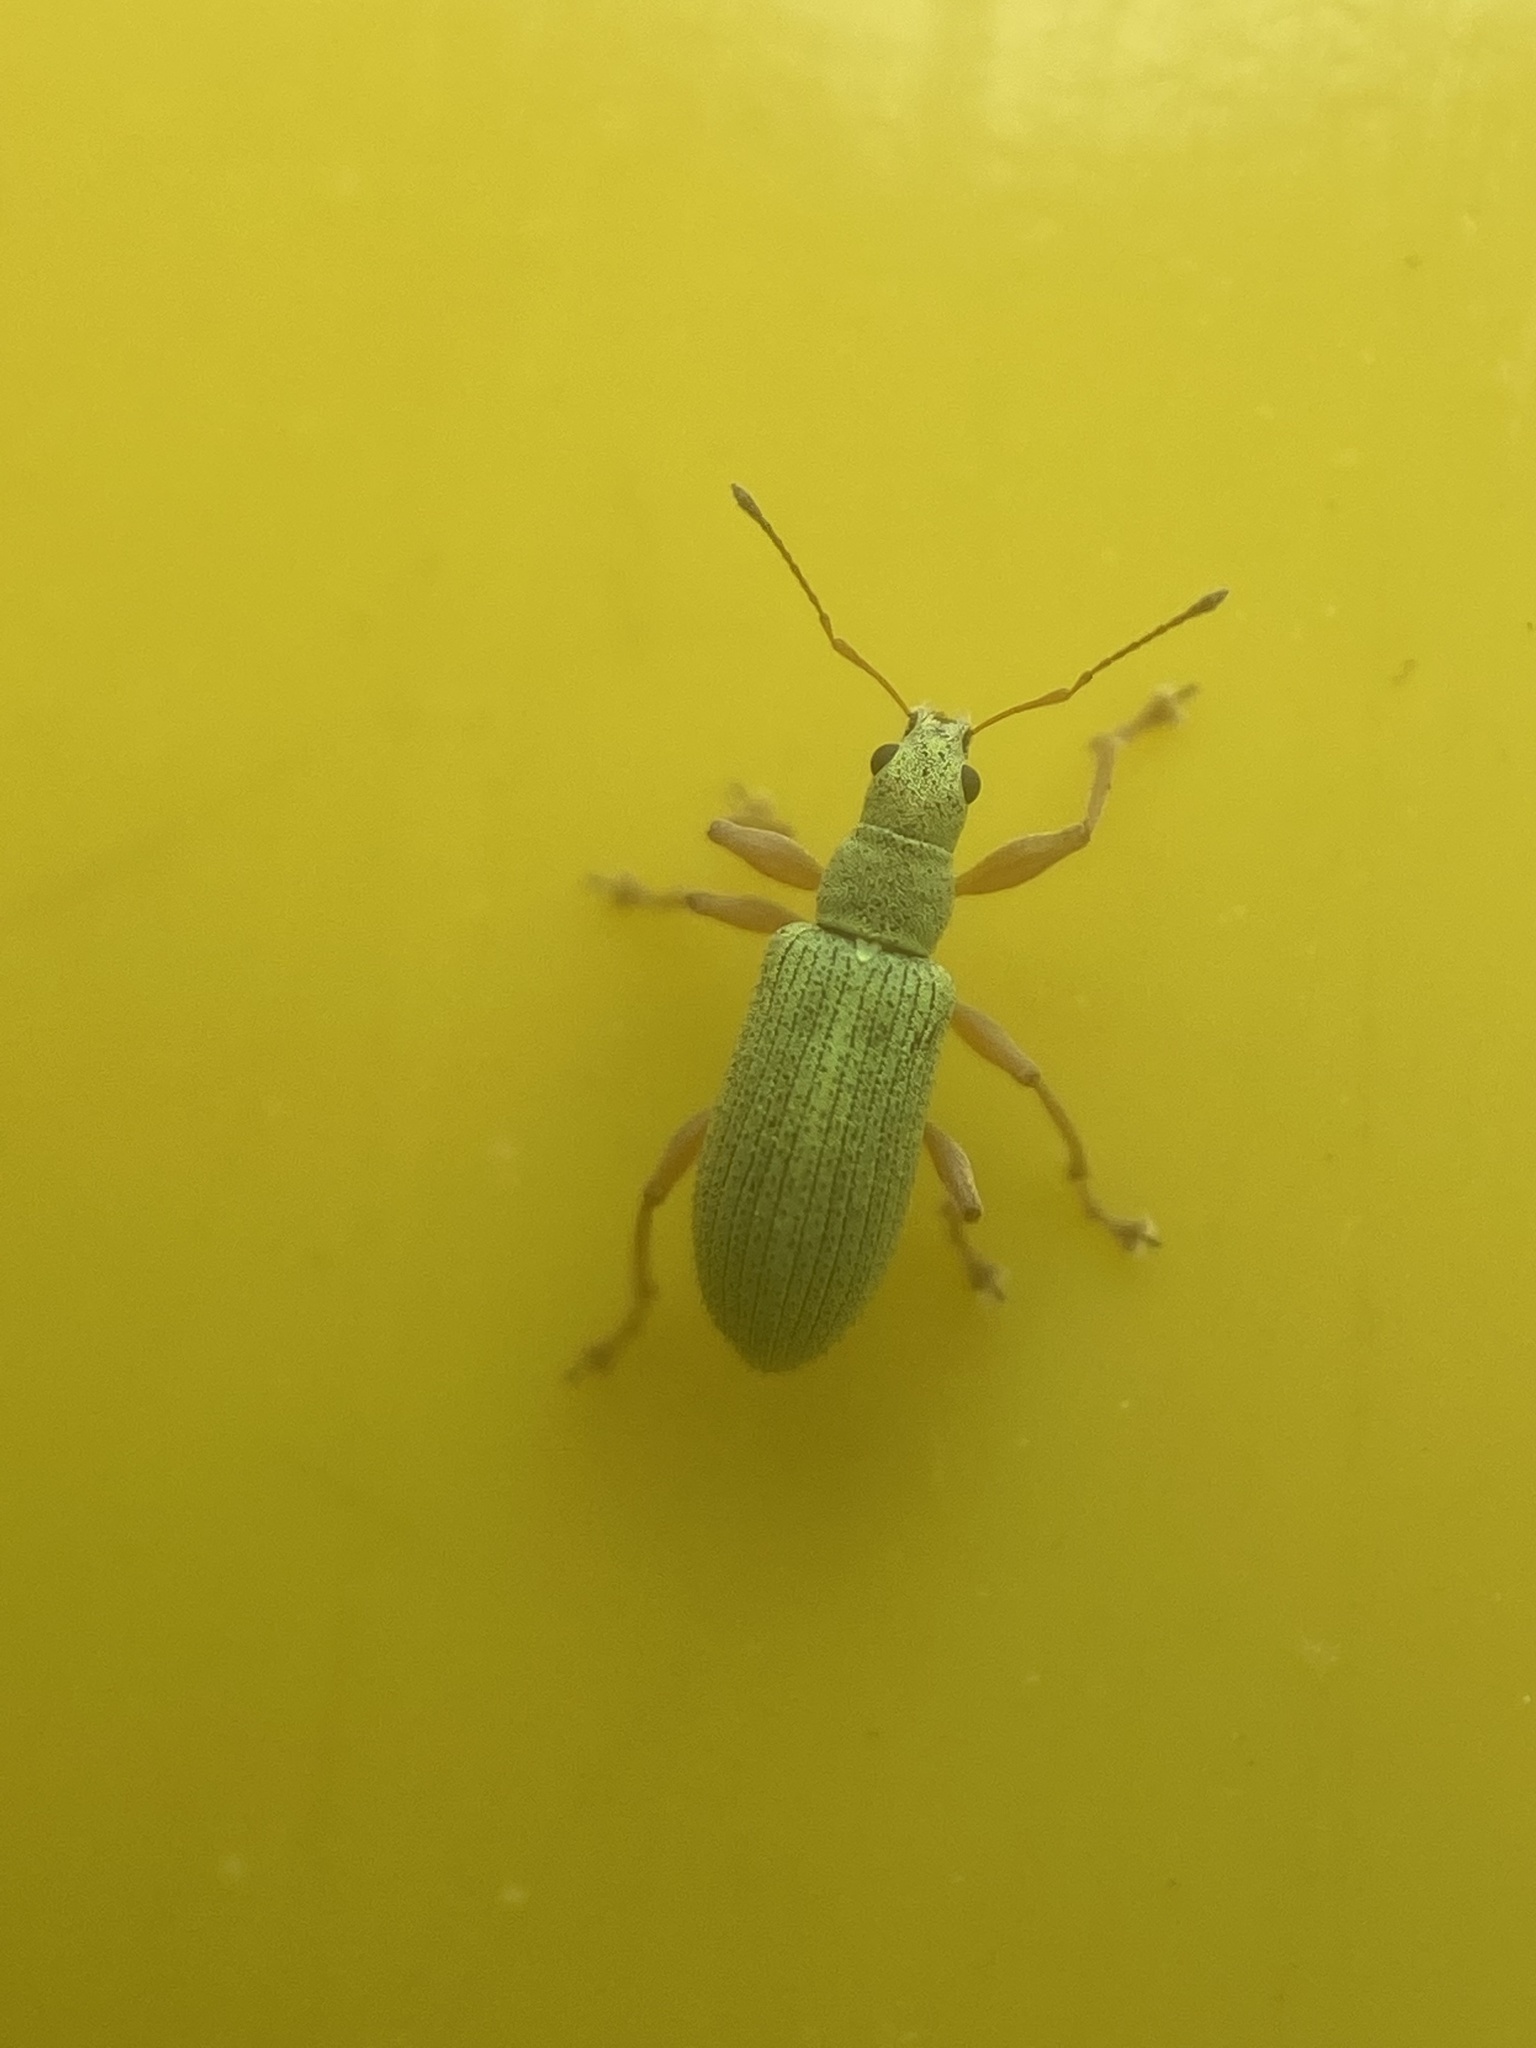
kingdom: Animalia
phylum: Arthropoda
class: Insecta
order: Coleoptera
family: Curculionidae
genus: Polydrusus
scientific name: Polydrusus impressifrons
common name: Weevil
